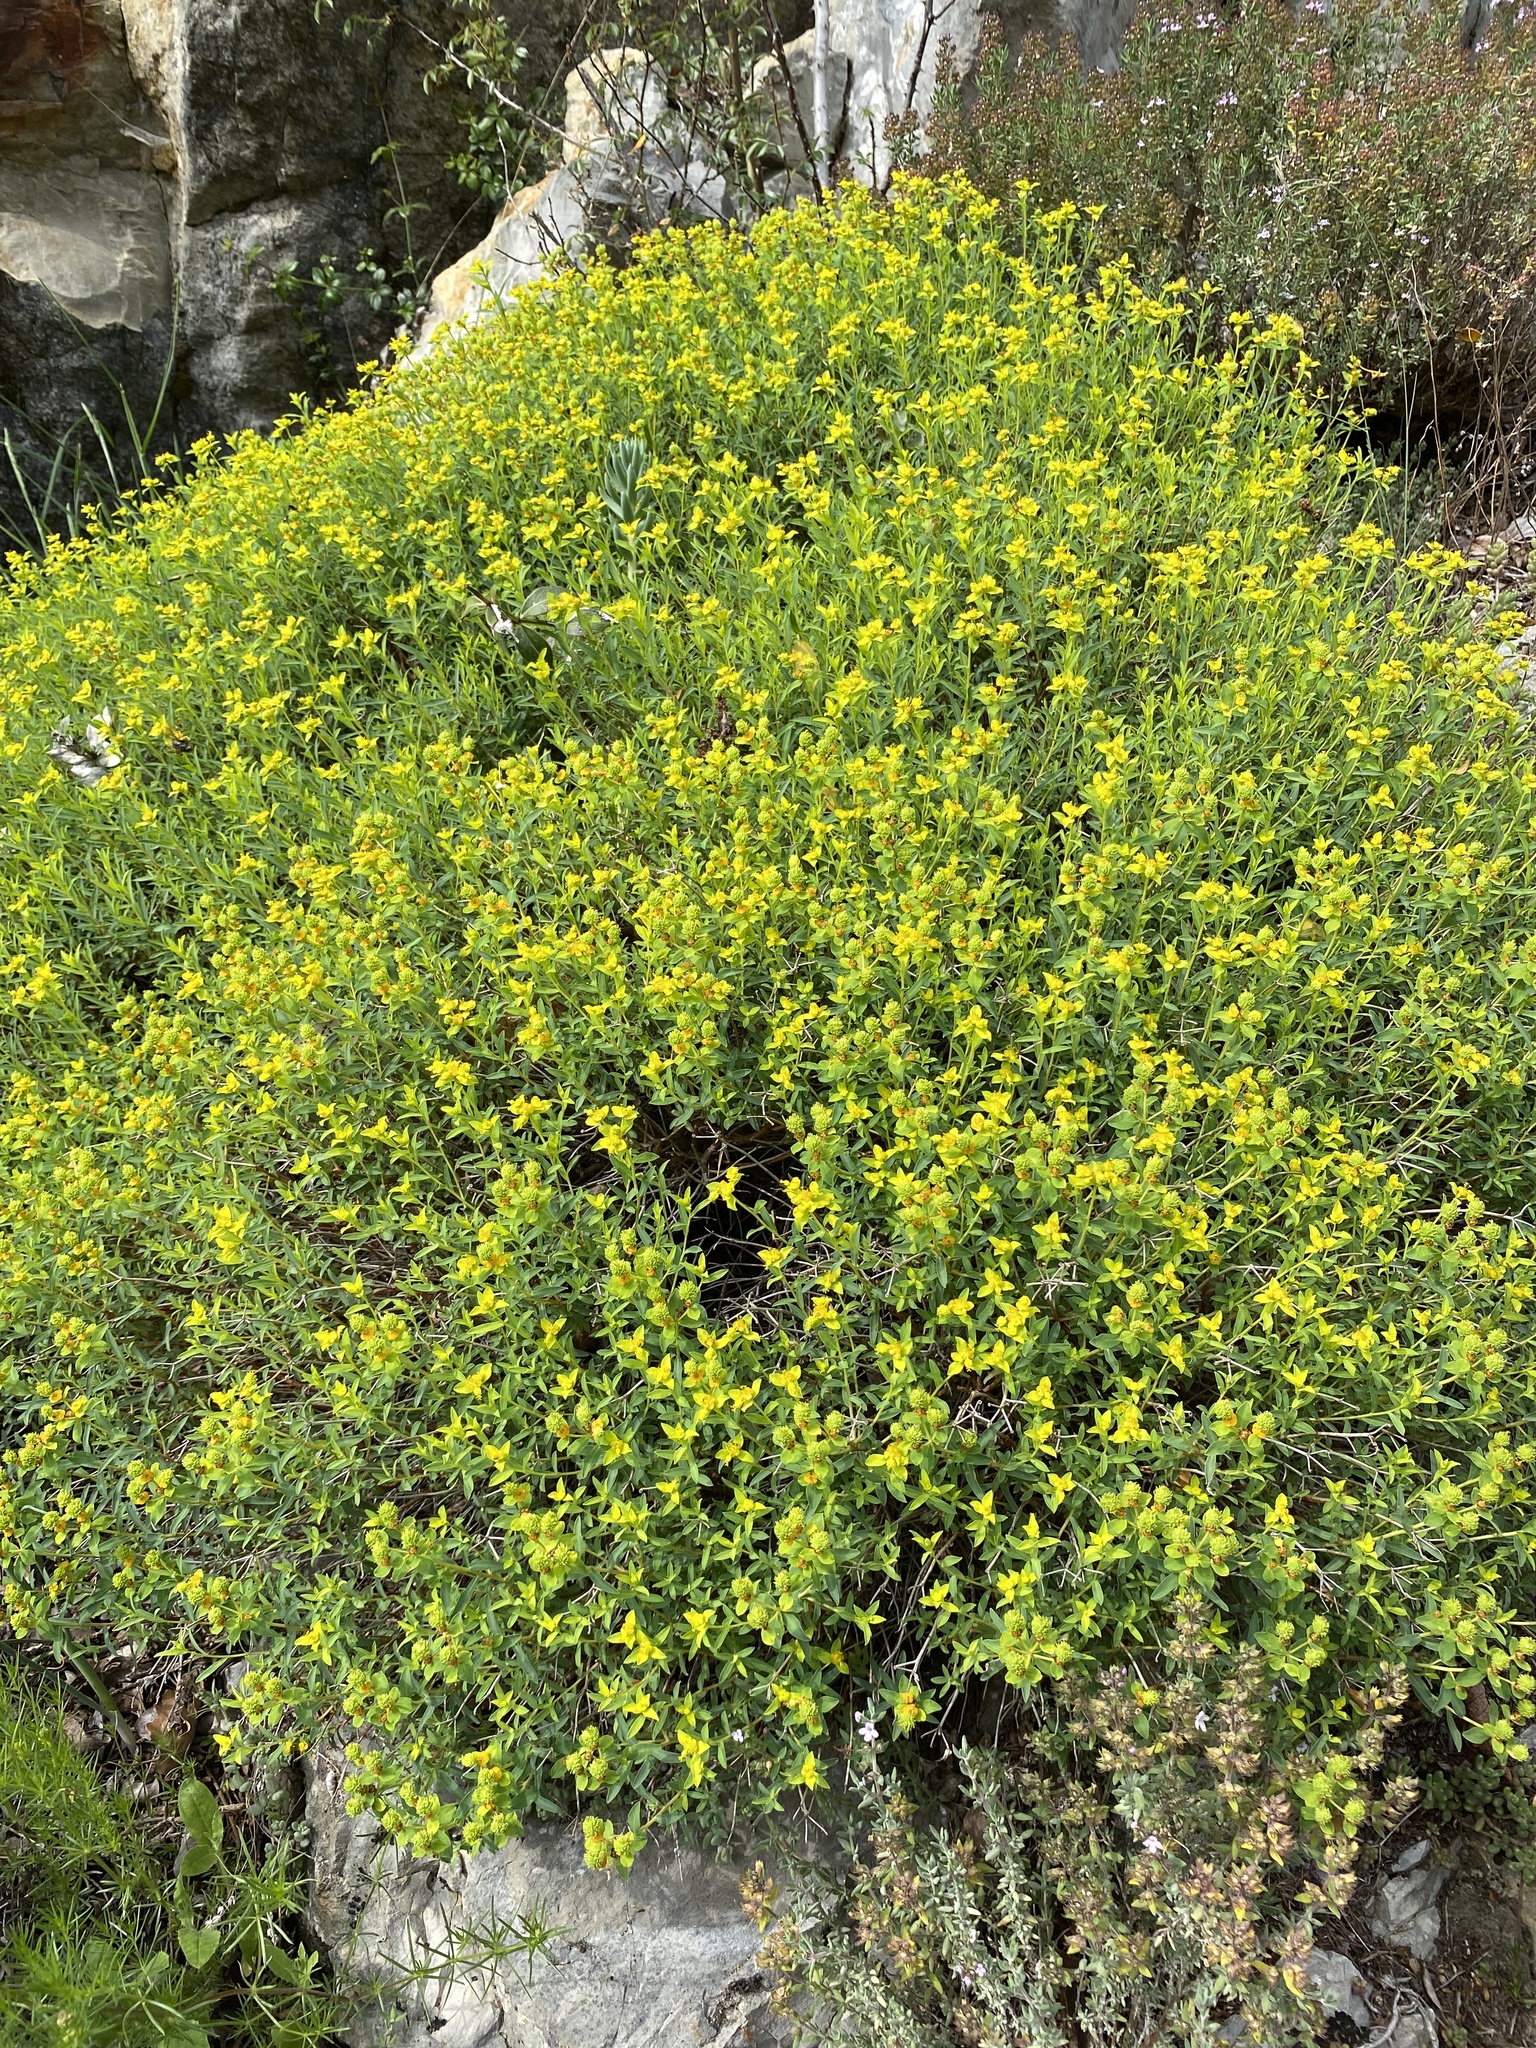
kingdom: Plantae
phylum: Tracheophyta
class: Magnoliopsida
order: Malpighiales
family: Euphorbiaceae
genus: Euphorbia
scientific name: Euphorbia spinosa
